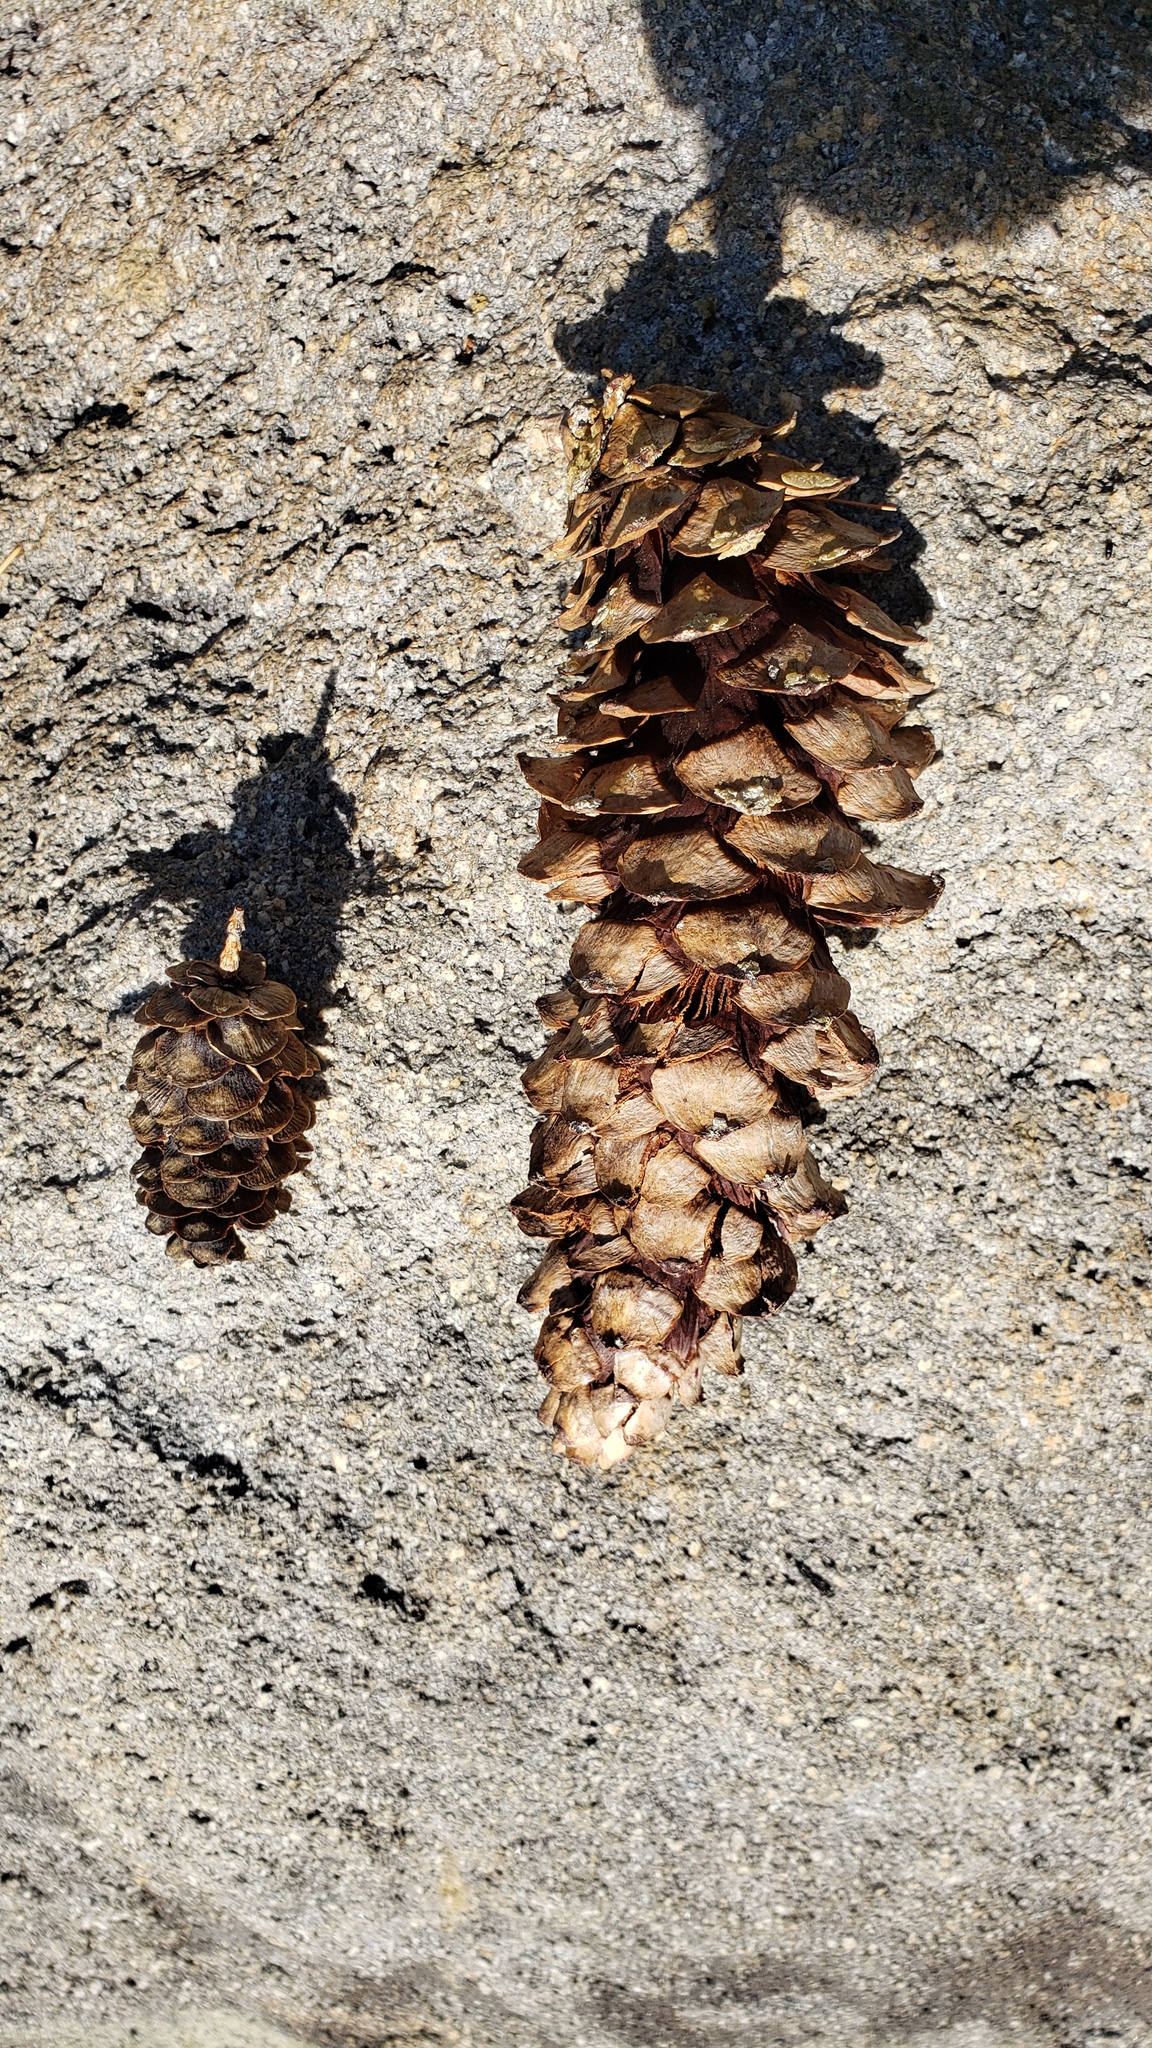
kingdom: Plantae
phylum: Tracheophyta
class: Pinopsida
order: Pinales
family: Pinaceae
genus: Tsuga
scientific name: Tsuga mertensiana
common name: Mountain hemlock
